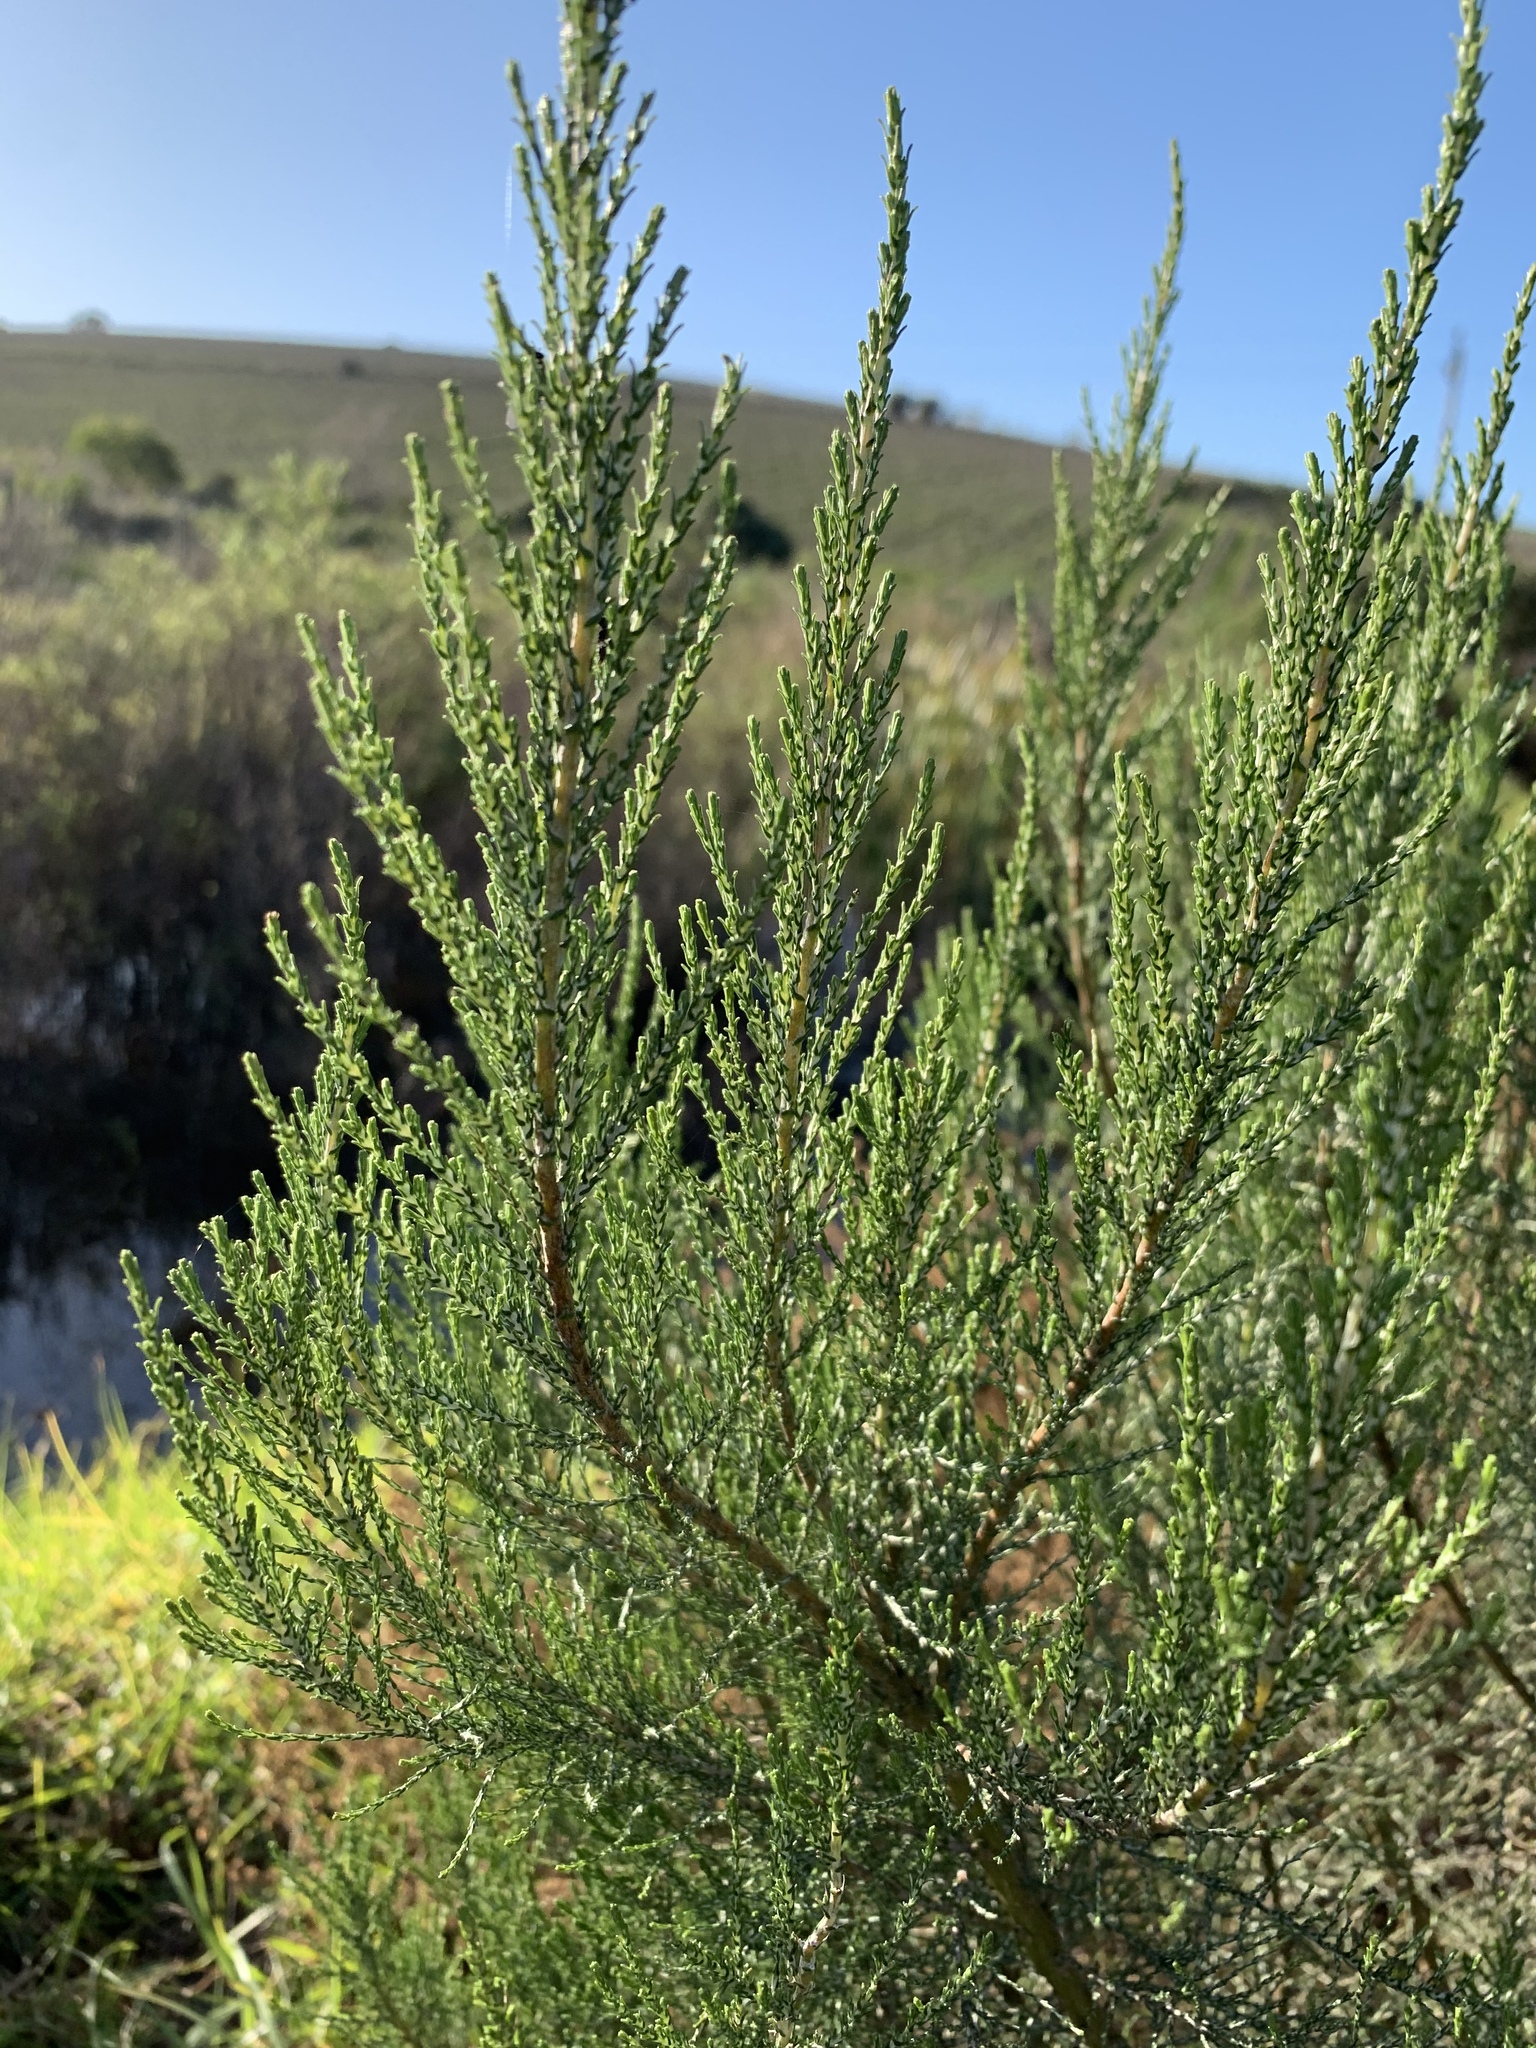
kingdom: Plantae
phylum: Tracheophyta
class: Magnoliopsida
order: Asterales
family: Asteraceae
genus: Dicerothamnus
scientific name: Dicerothamnus rhinocerotis
